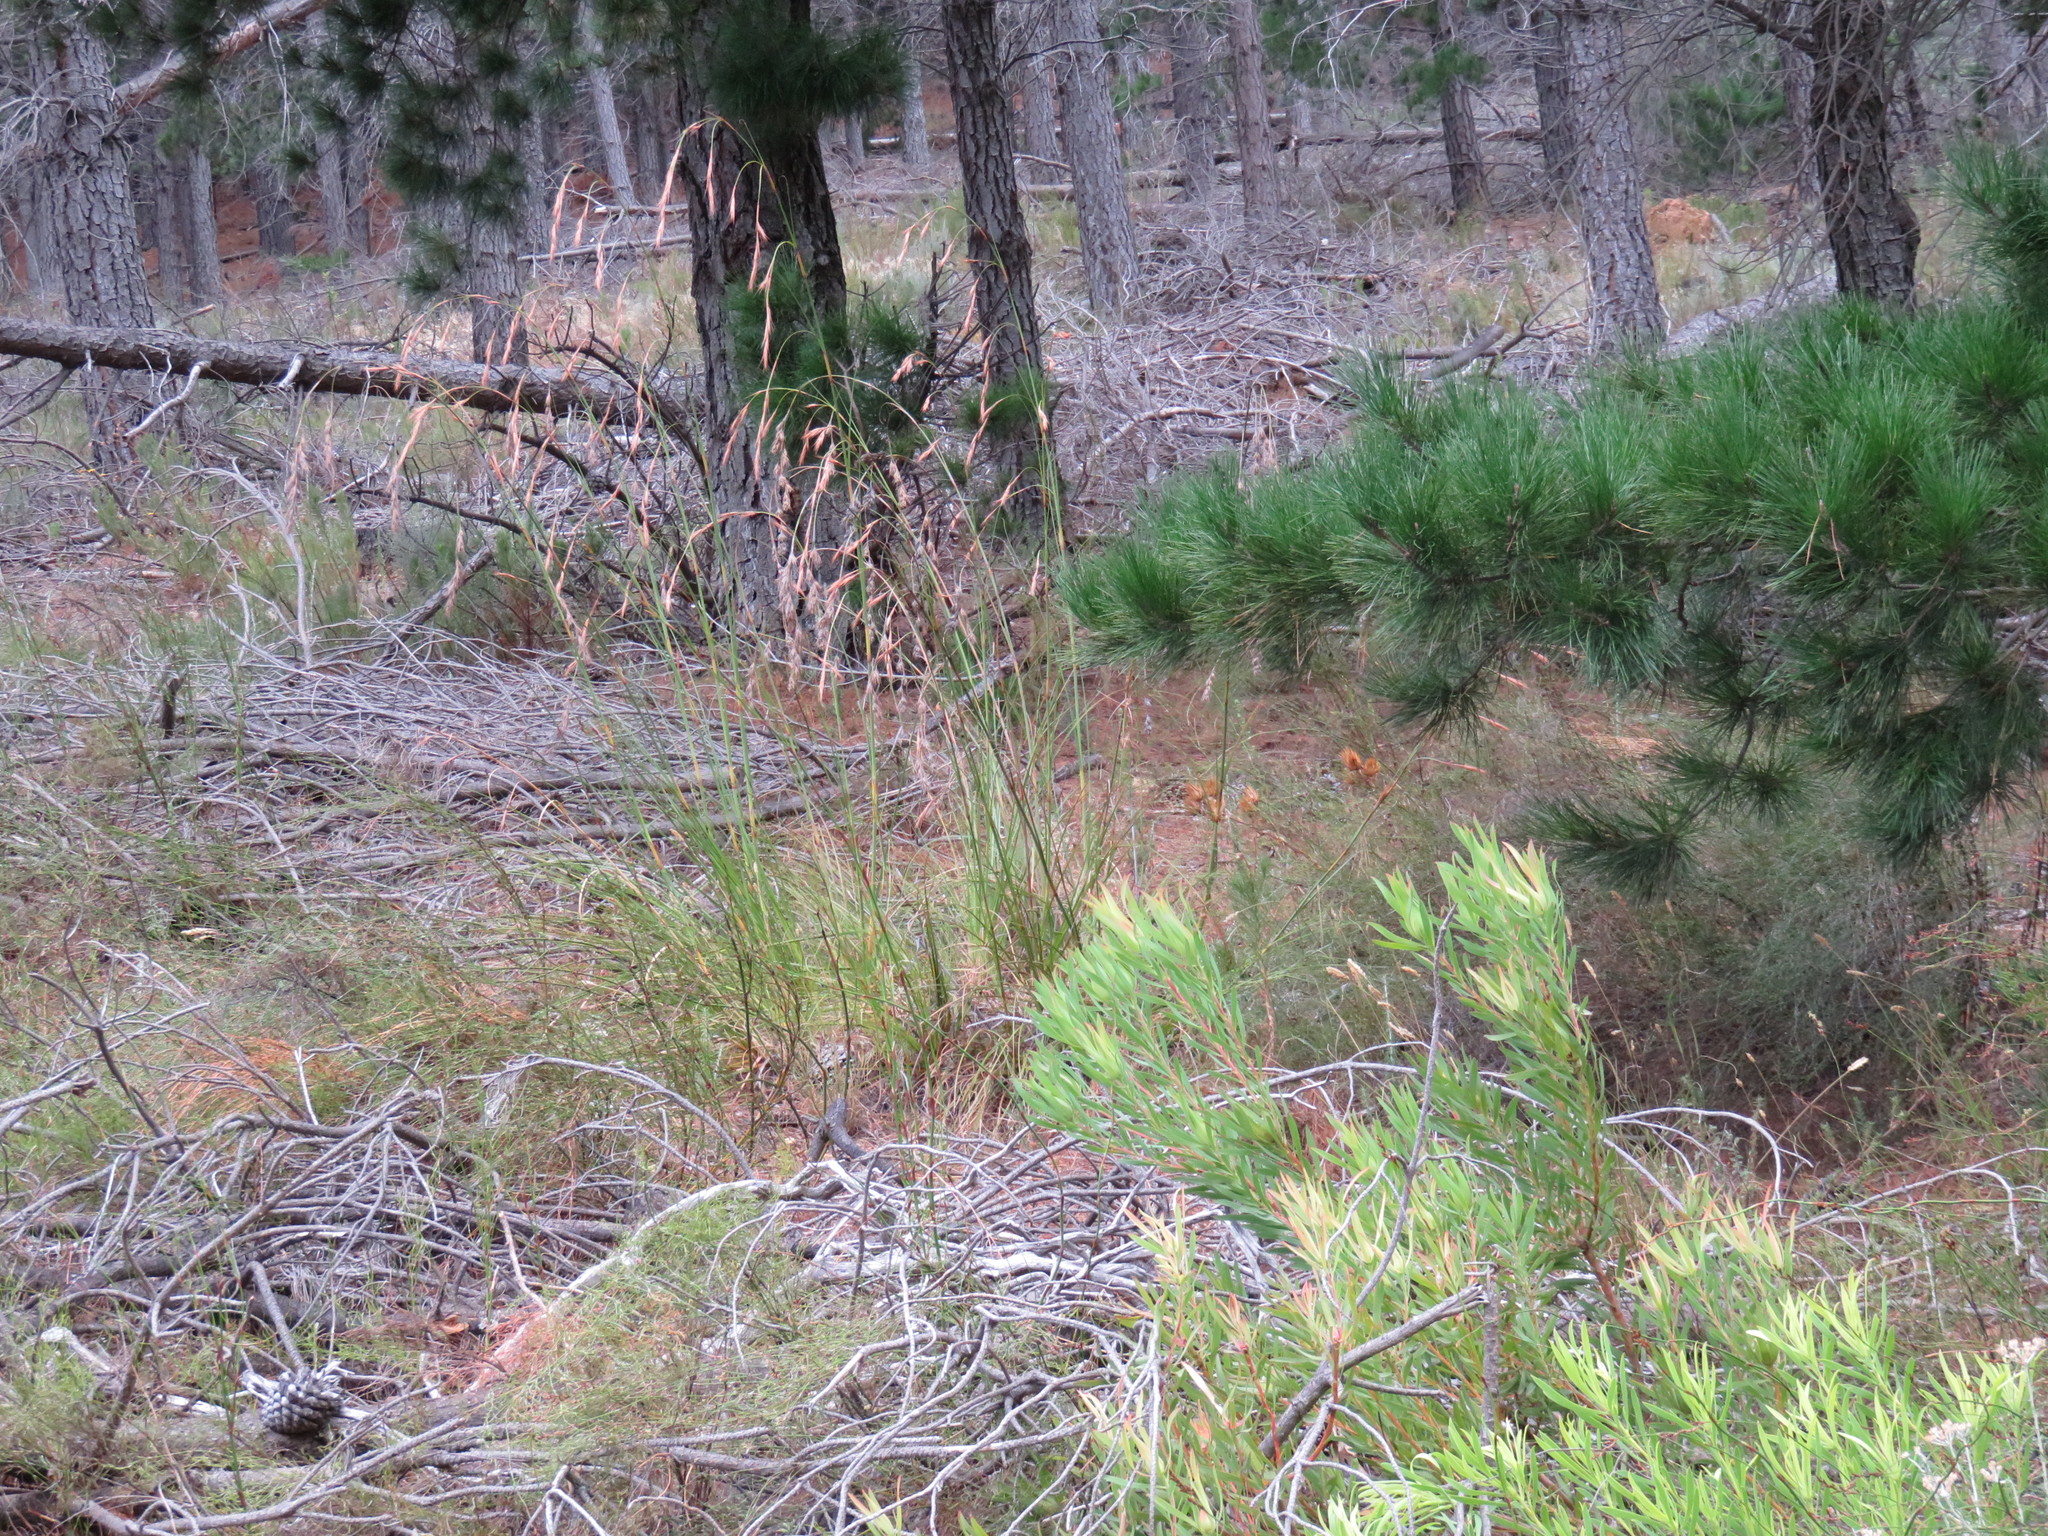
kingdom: Plantae
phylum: Tracheophyta
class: Liliopsida
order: Poales
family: Cyperaceae
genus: Tetraria
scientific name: Tetraria involucrata
